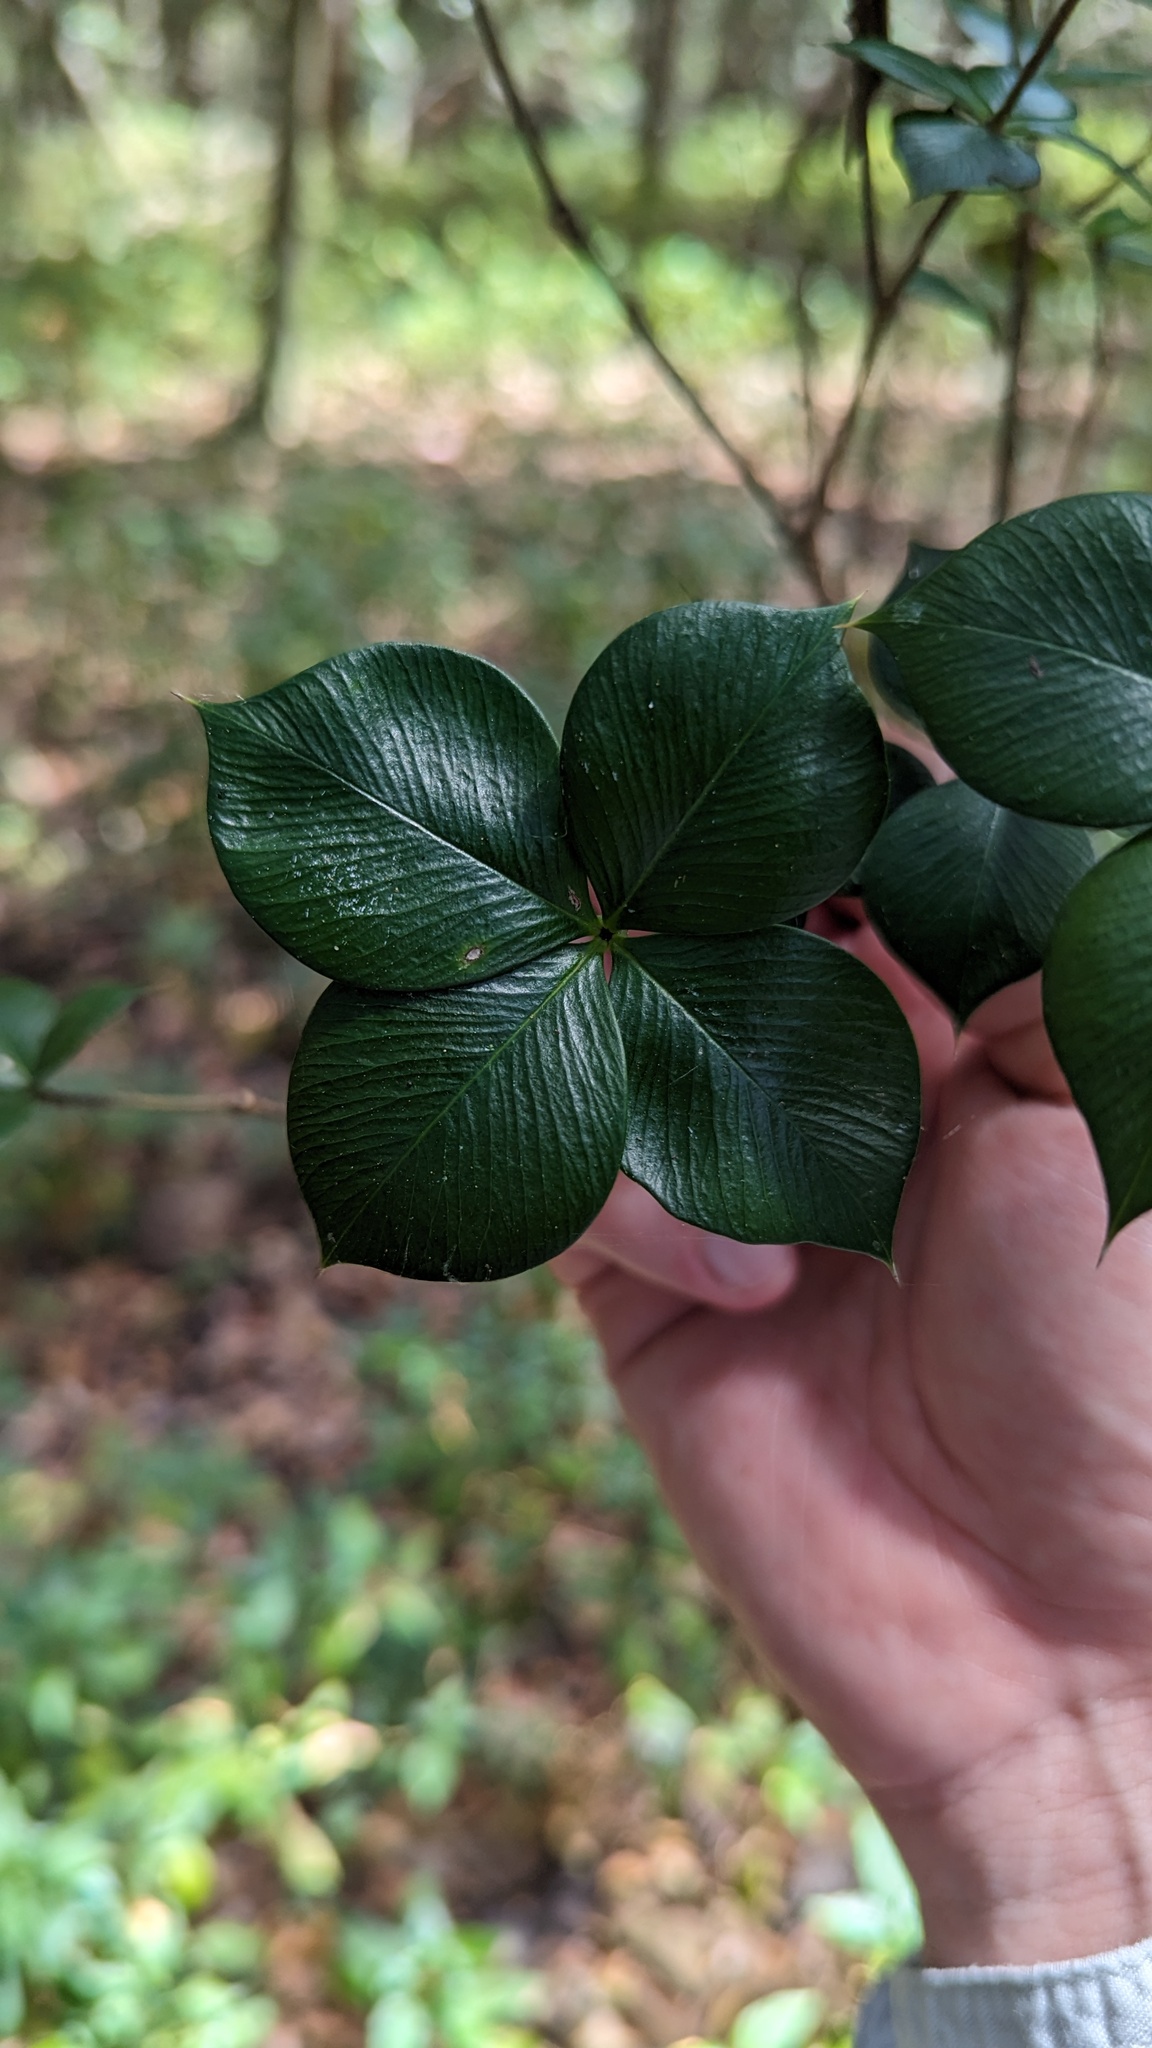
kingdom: Plantae
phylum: Tracheophyta
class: Magnoliopsida
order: Gentianales
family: Apocynaceae
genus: Alyxia
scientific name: Alyxia ruscifolia
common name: Chainfruit
